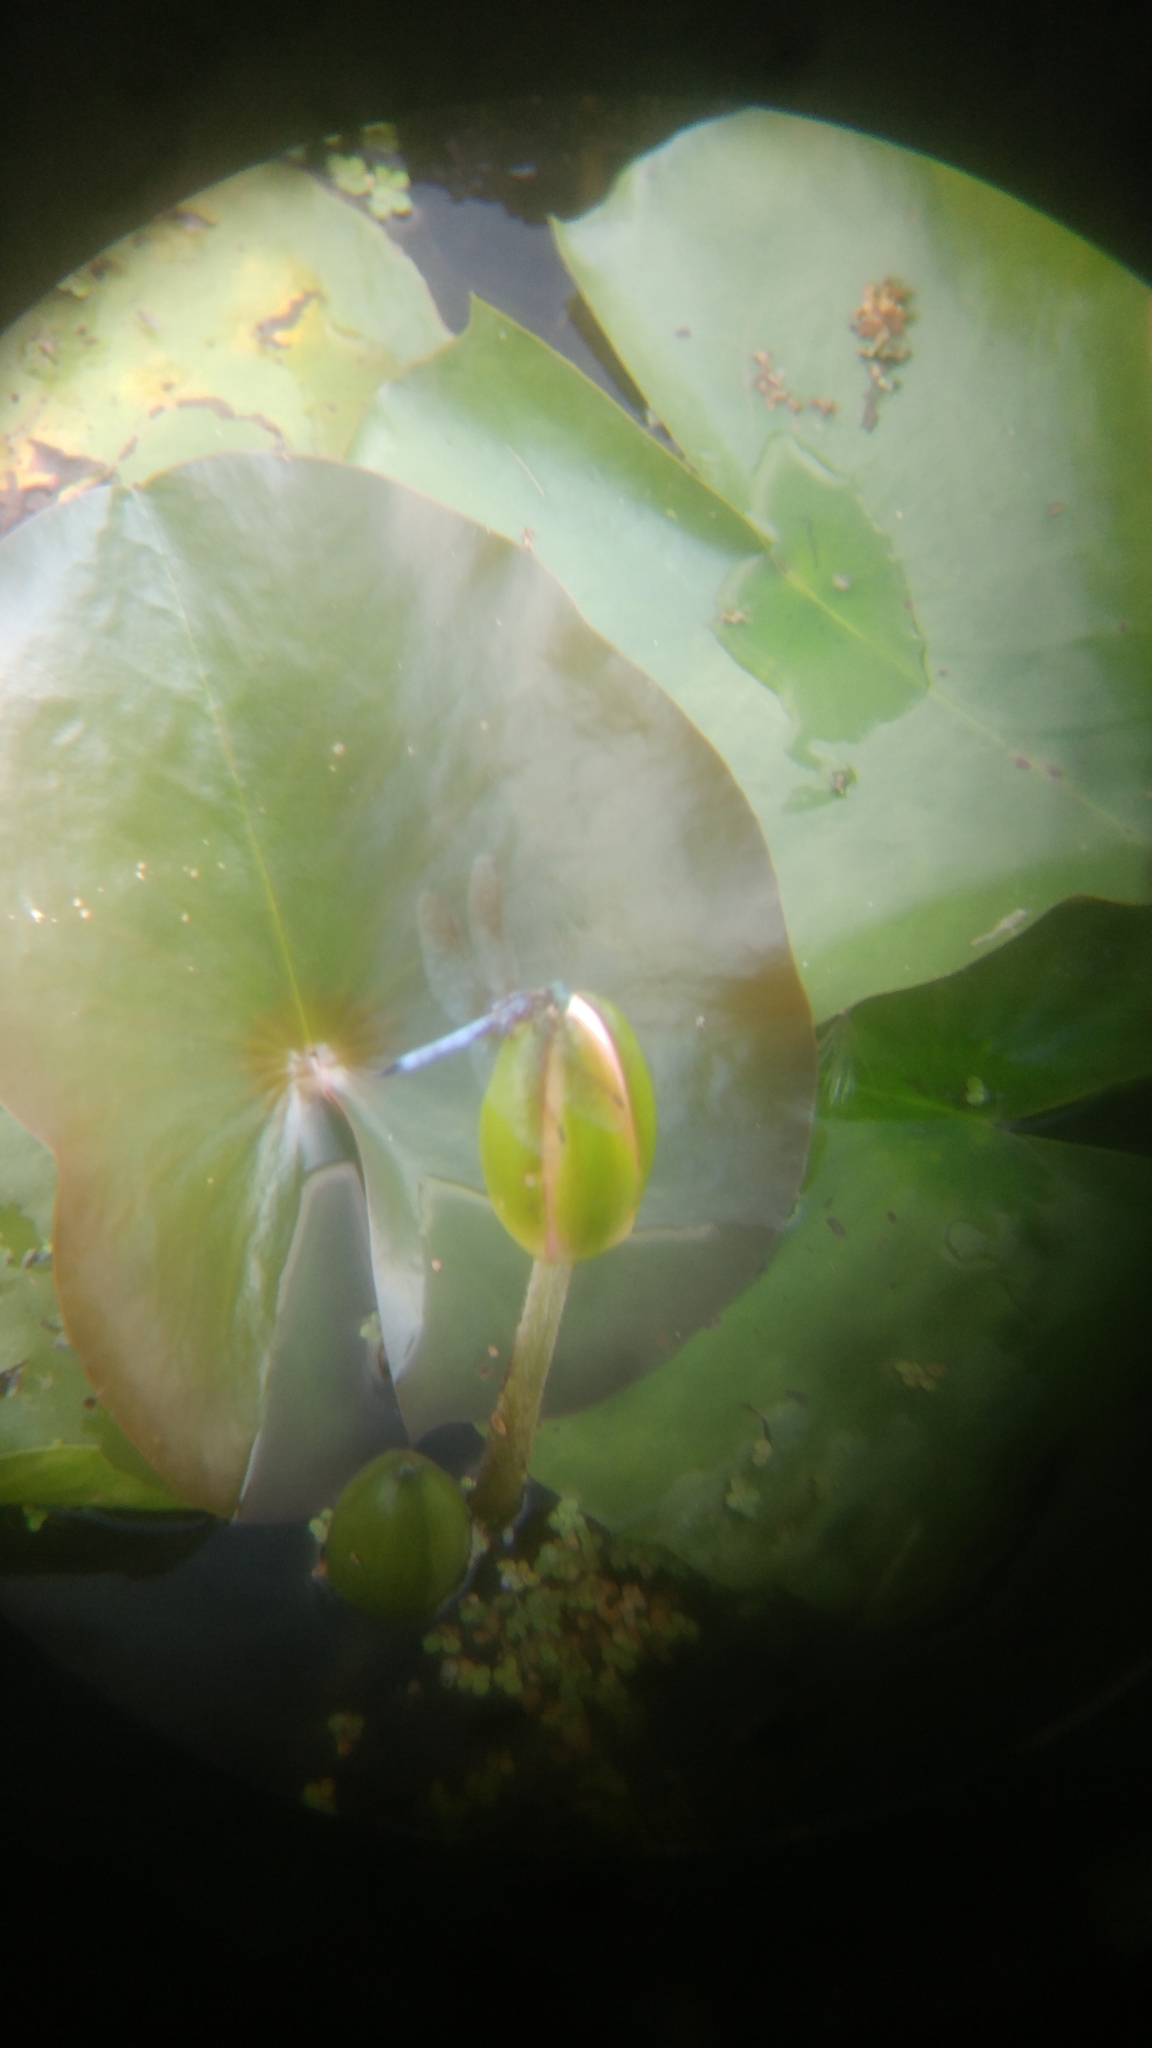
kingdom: Animalia
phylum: Arthropoda
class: Insecta
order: Odonata
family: Libellulidae
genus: Pachydiplax
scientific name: Pachydiplax longipennis
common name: Blue dasher
